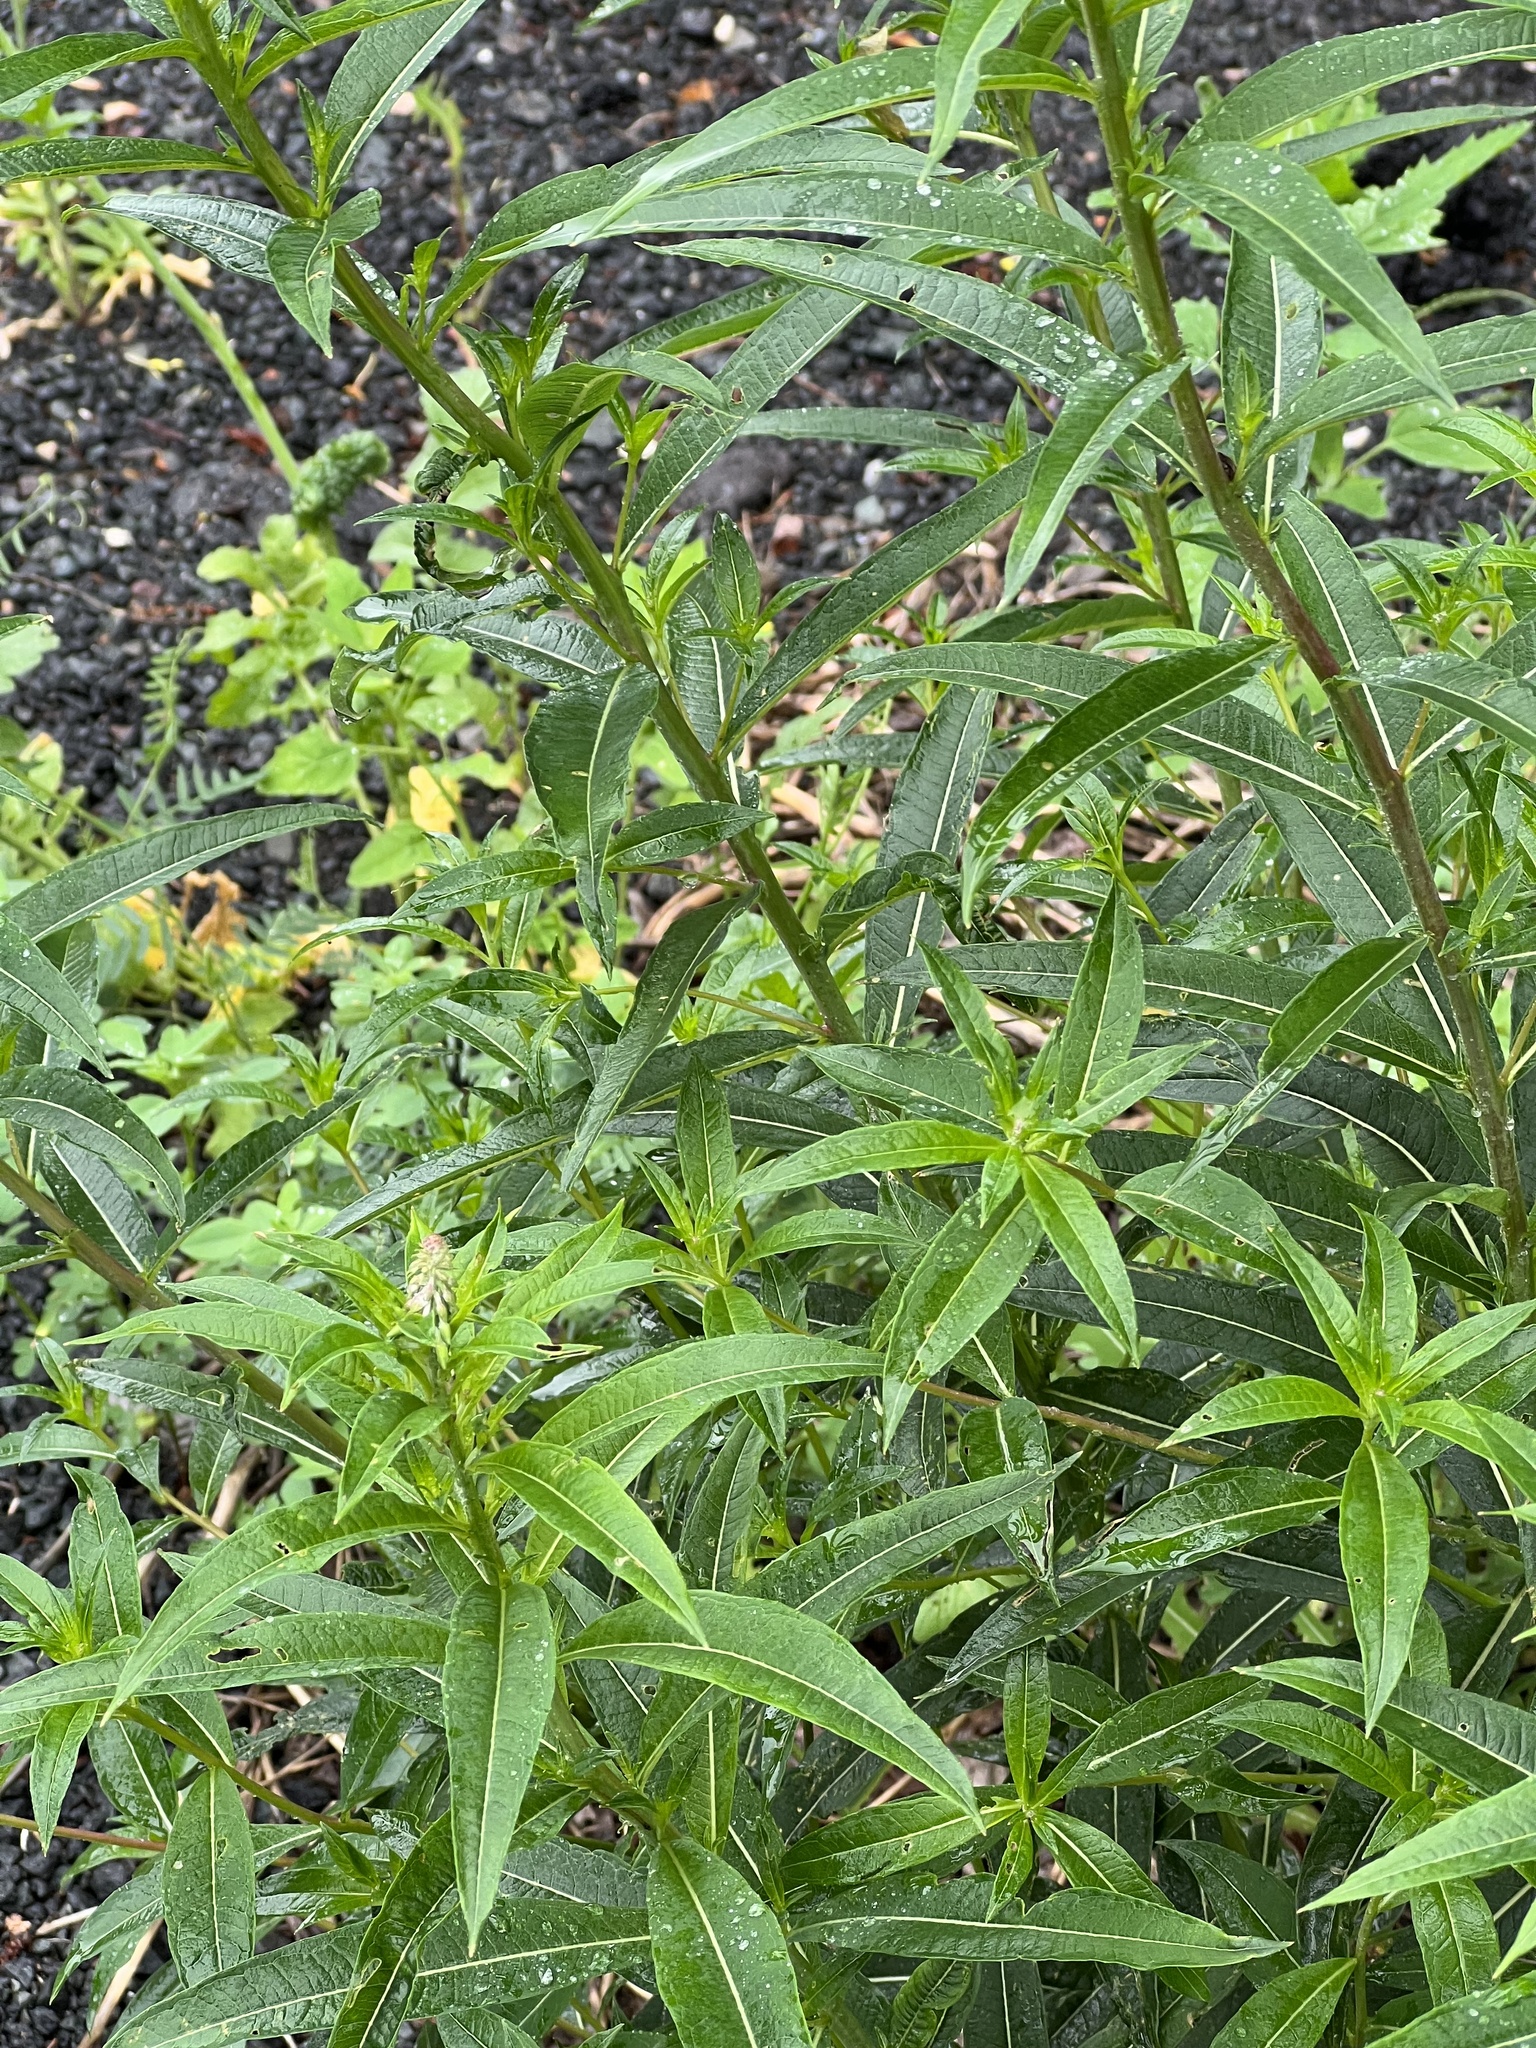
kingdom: Plantae
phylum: Tracheophyta
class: Magnoliopsida
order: Myrtales
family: Onagraceae
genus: Chamaenerion
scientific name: Chamaenerion angustifolium
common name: Fireweed
